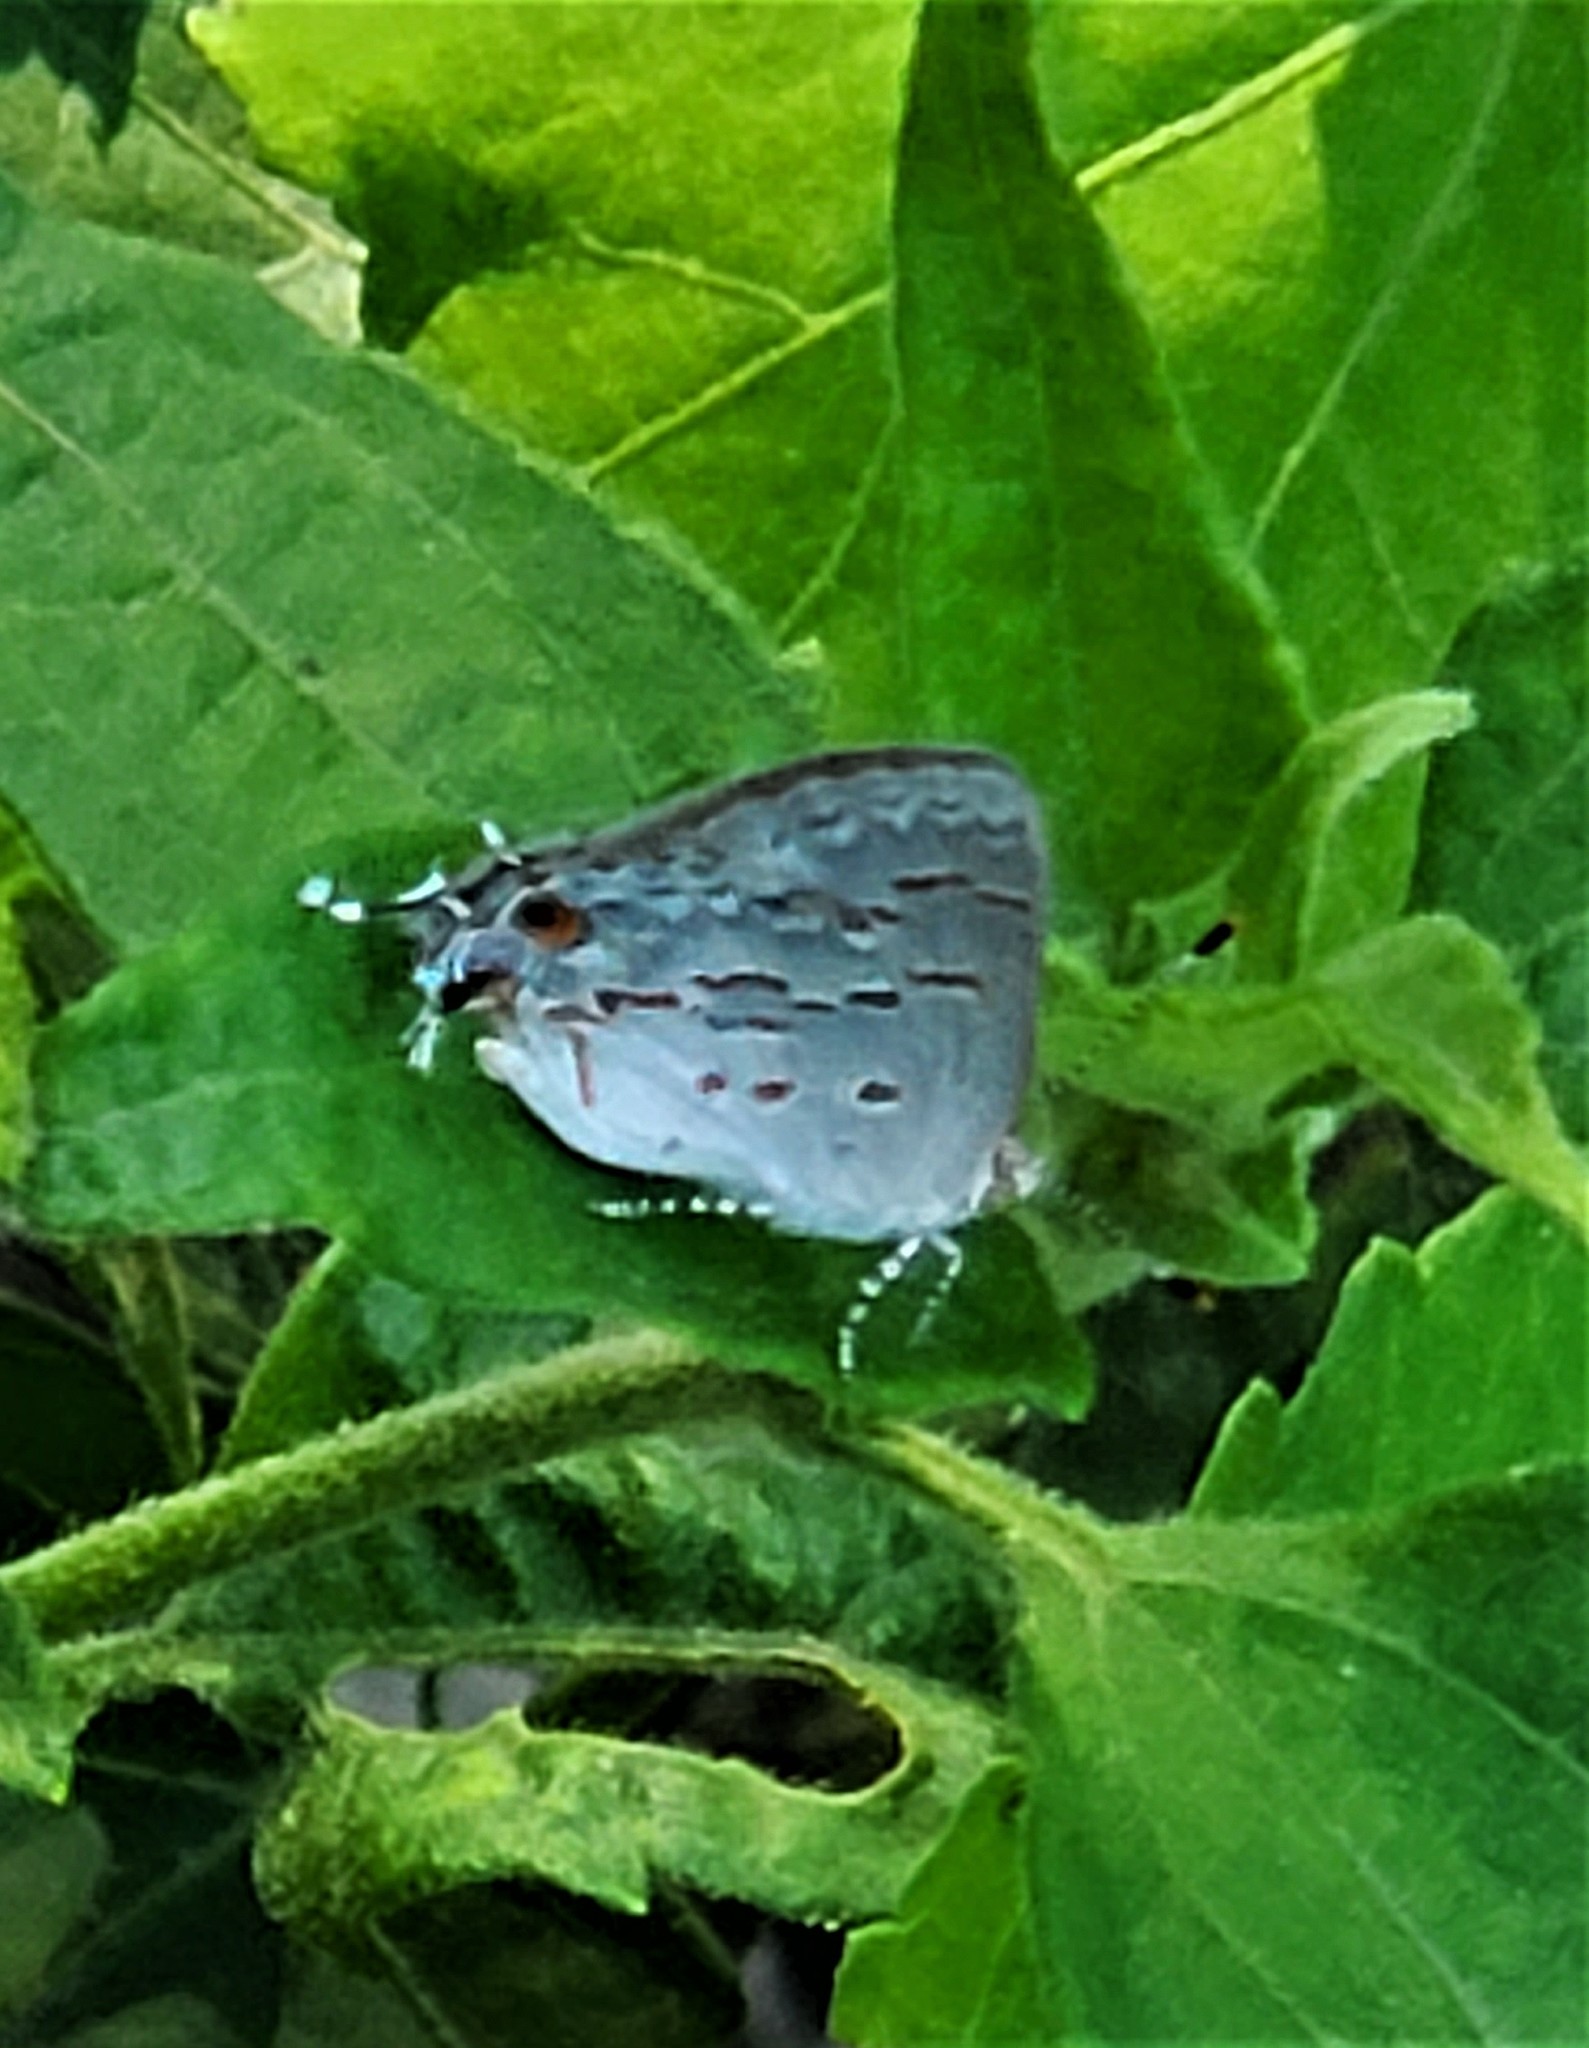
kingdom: Animalia
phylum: Arthropoda
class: Insecta
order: Lepidoptera
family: Lycaenidae
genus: Ministrymon
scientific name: Ministrymon clytie
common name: Clytie ministreak
